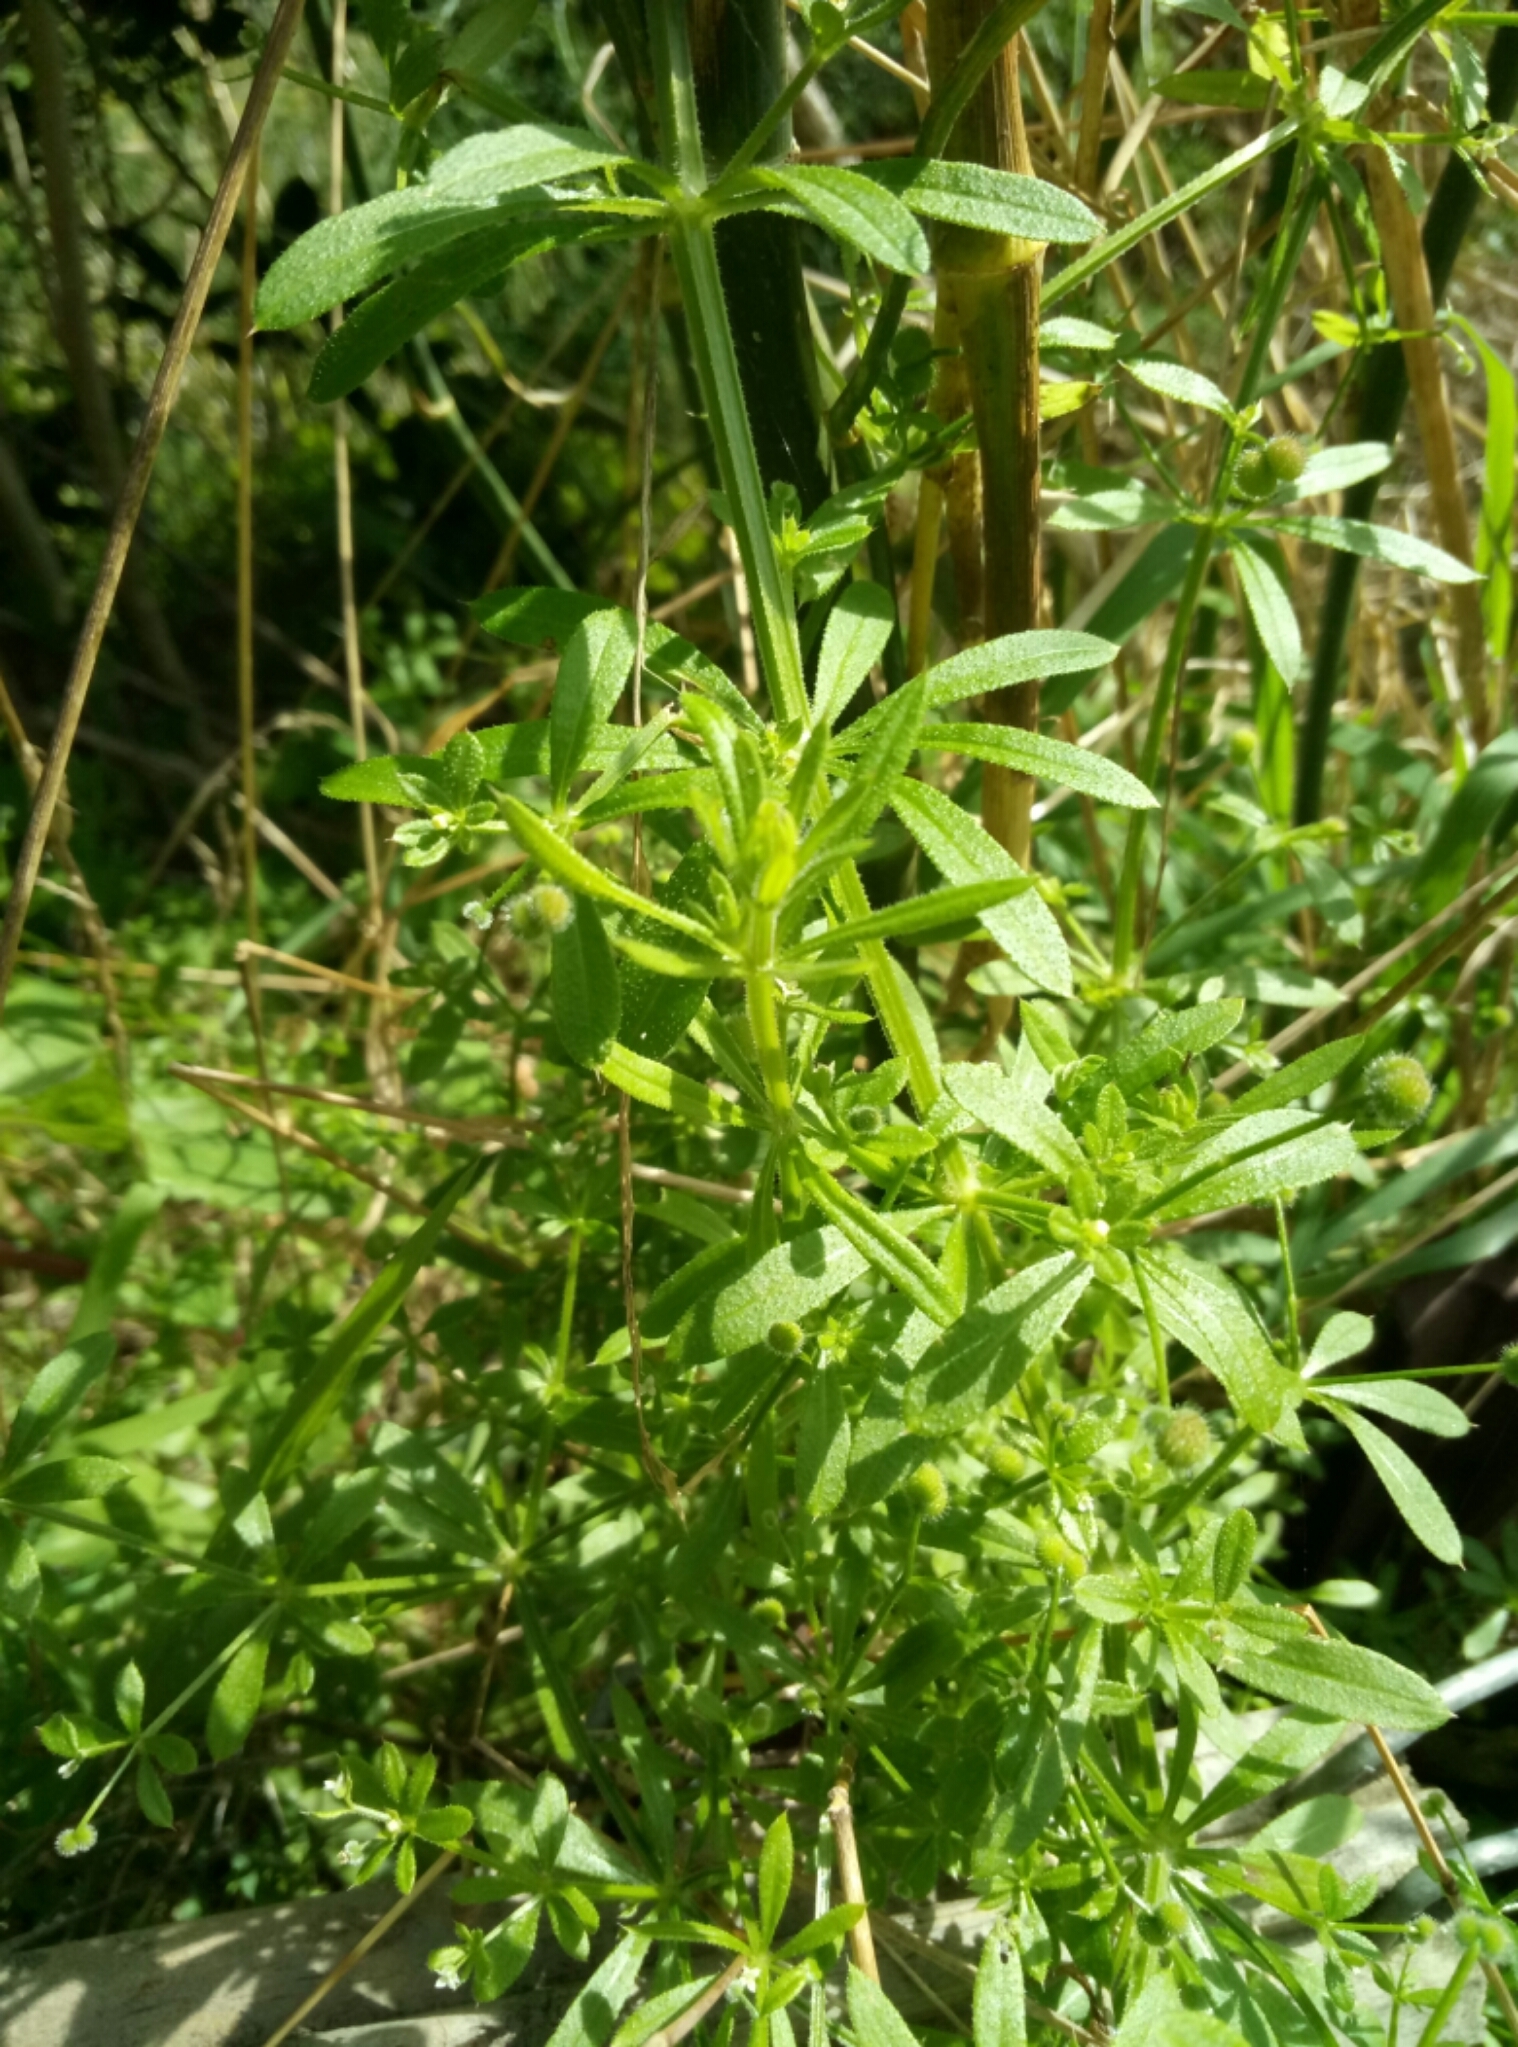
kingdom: Plantae
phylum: Tracheophyta
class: Magnoliopsida
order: Gentianales
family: Rubiaceae
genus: Galium
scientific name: Galium aparine
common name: Cleavers
